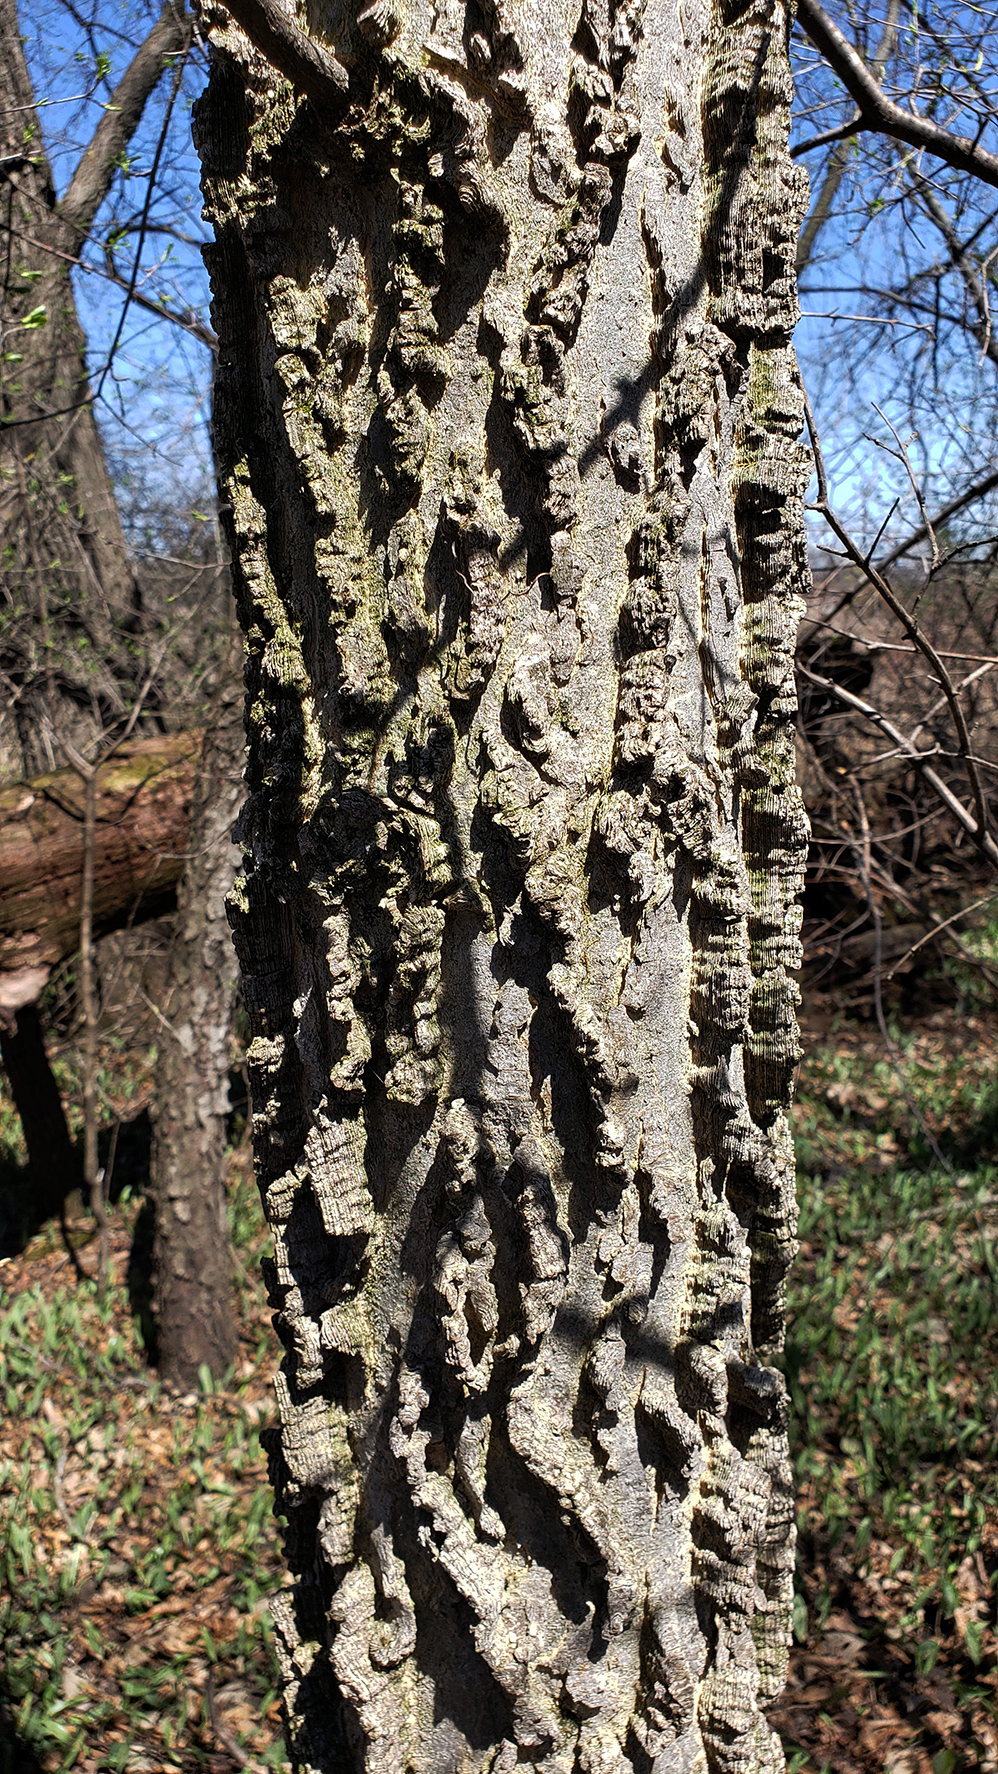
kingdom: Plantae
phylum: Tracheophyta
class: Magnoliopsida
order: Rosales
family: Cannabaceae
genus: Celtis
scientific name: Celtis occidentalis
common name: Common hackberry
